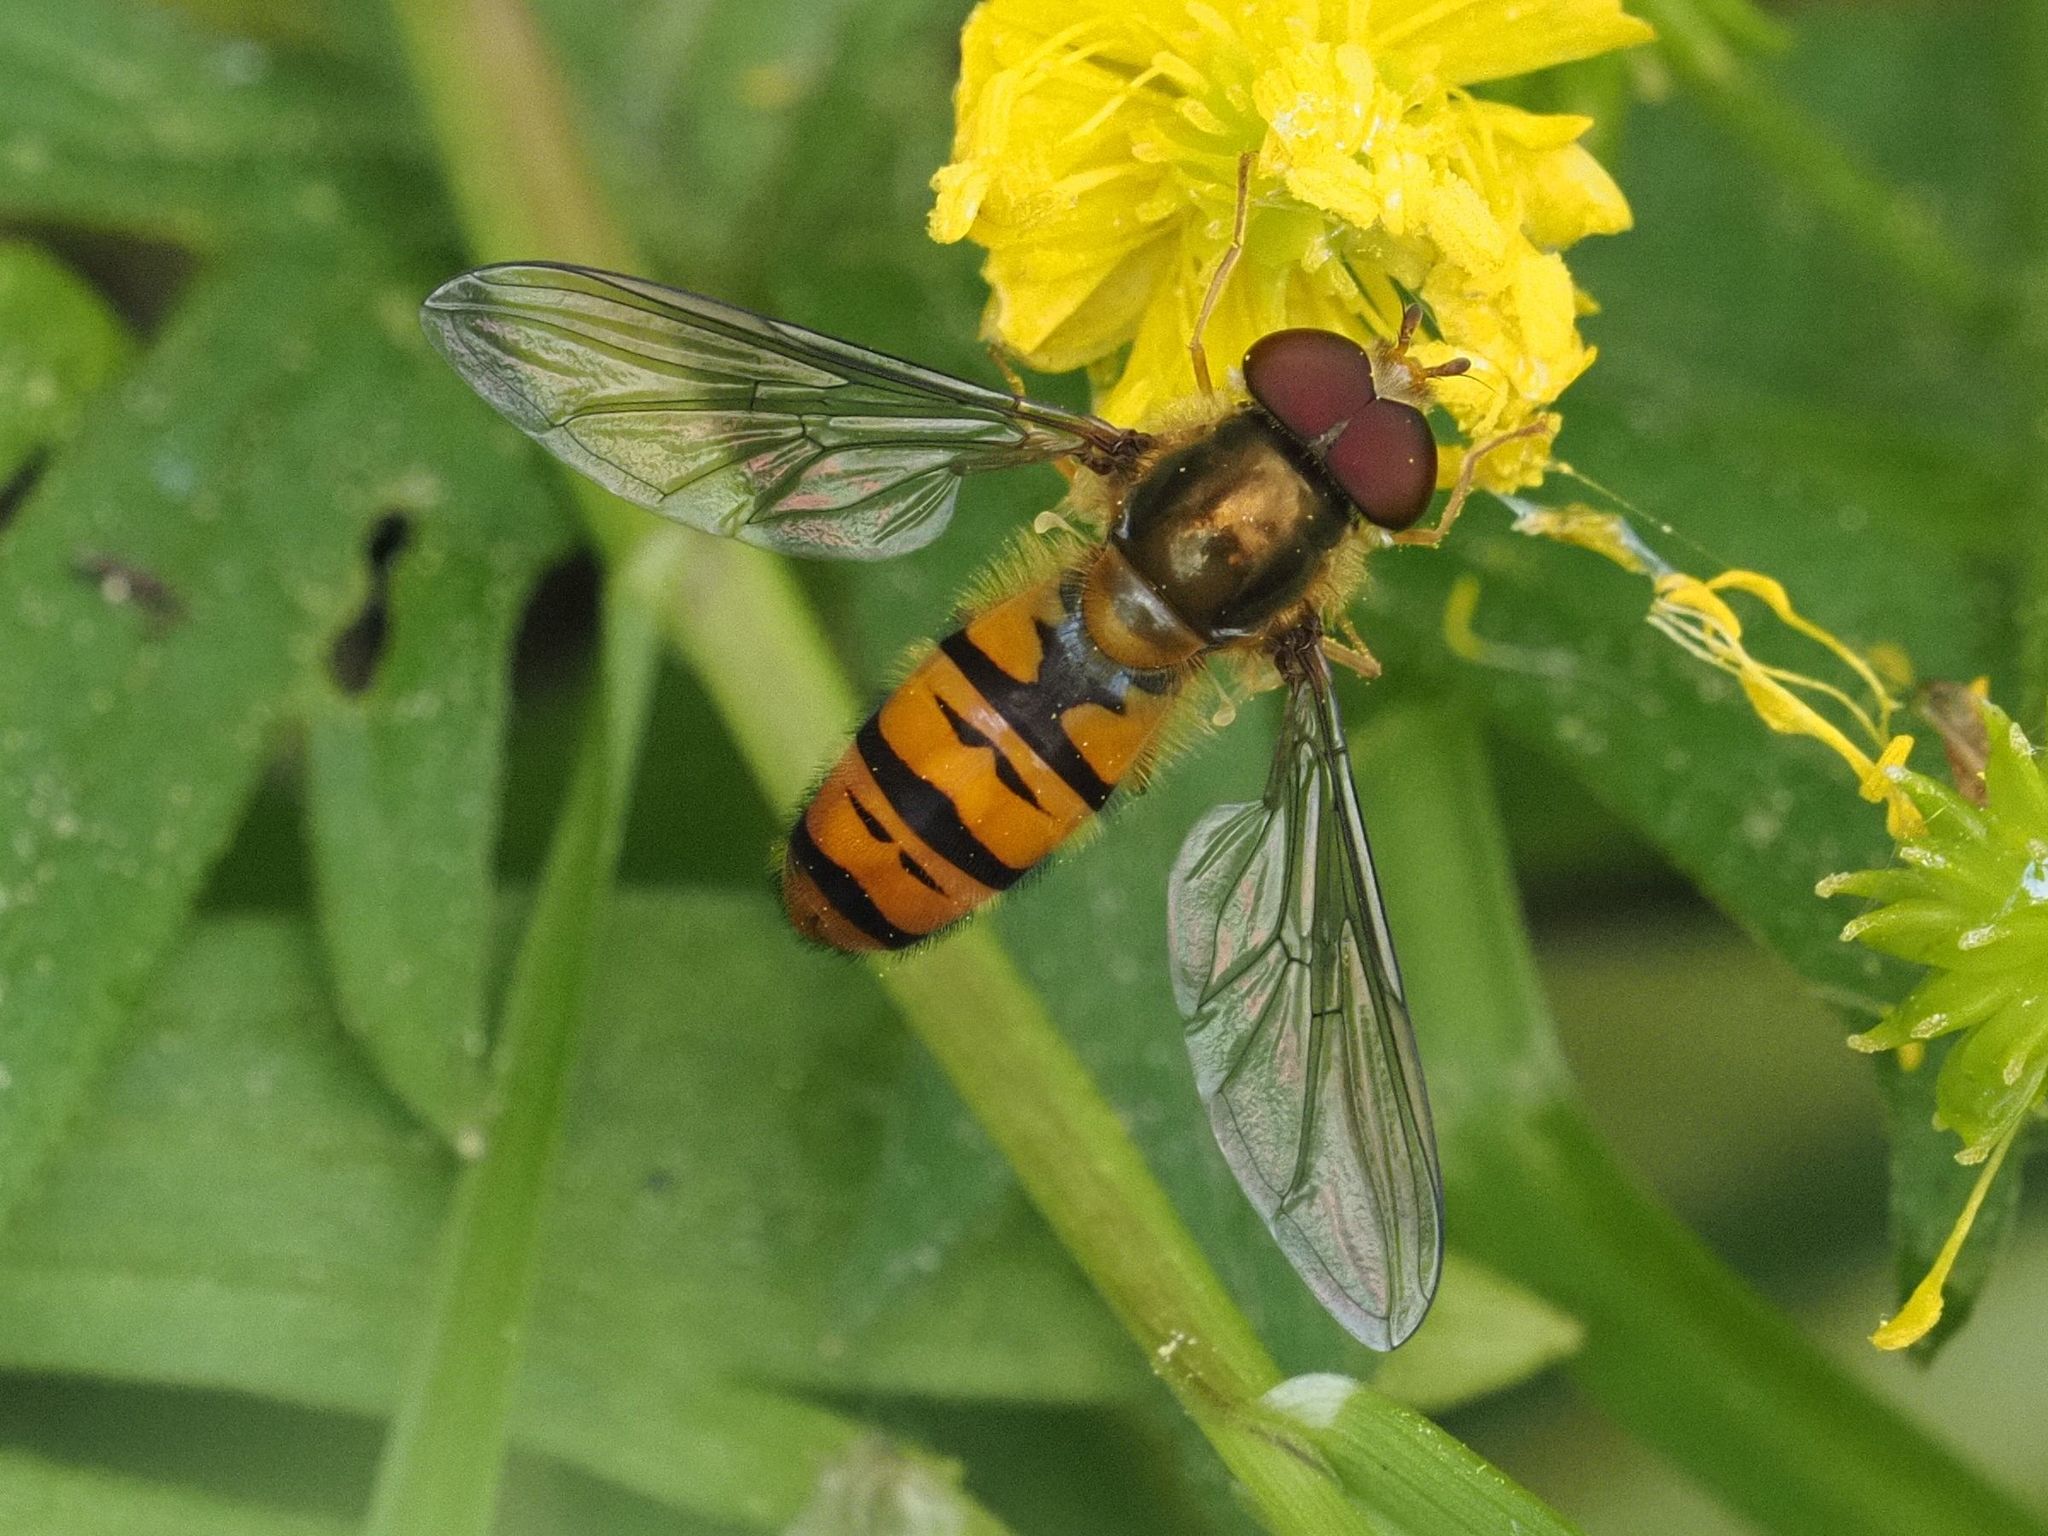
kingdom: Animalia
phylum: Arthropoda
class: Insecta
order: Diptera
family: Syrphidae
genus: Episyrphus
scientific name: Episyrphus balteatus
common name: Marmalade hoverfly
